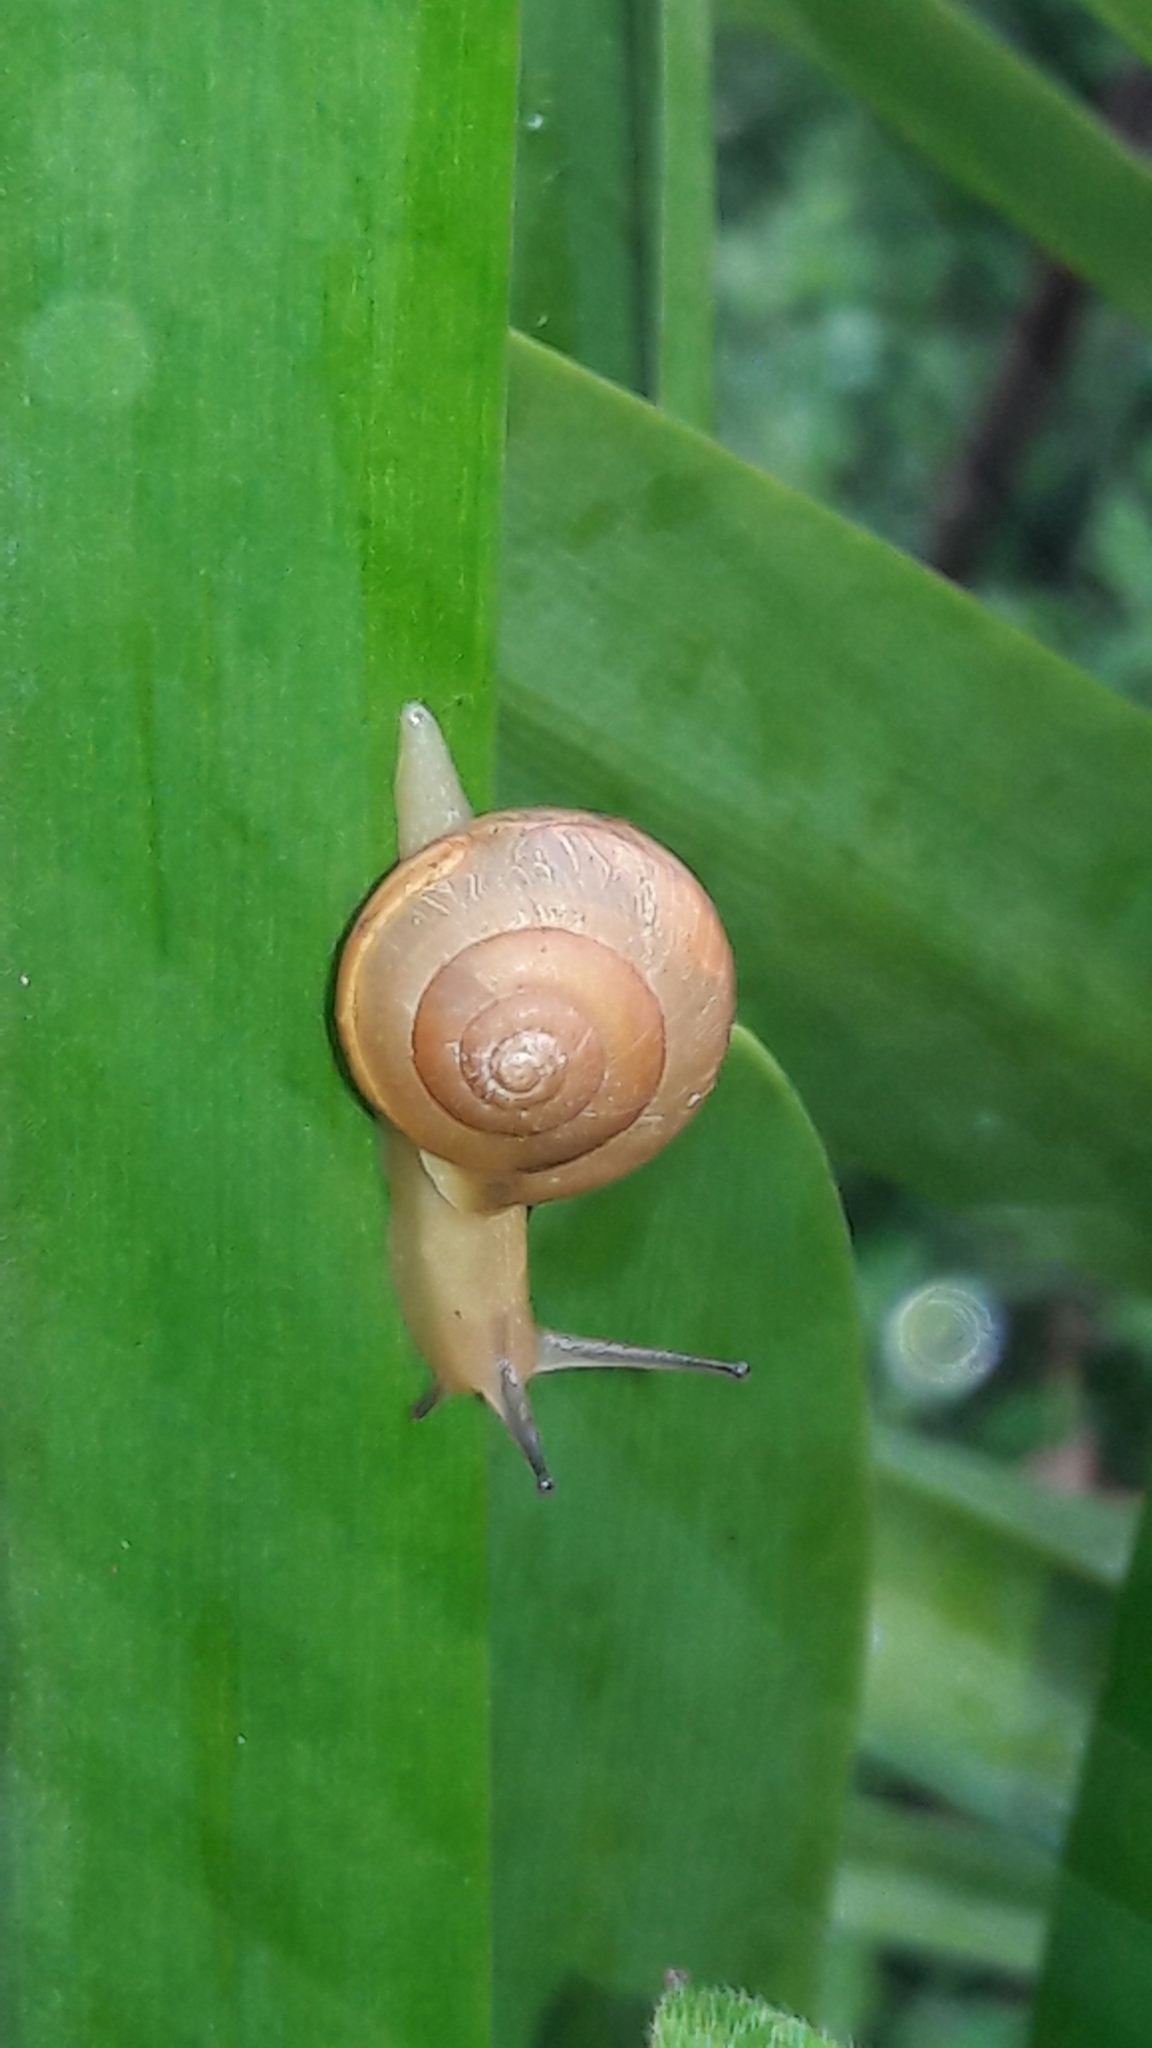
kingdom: Animalia
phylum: Mollusca
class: Gastropoda
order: Stylommatophora
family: Camaenidae
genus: Bradybaena
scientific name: Bradybaena similaris
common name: Asian trampsnail
